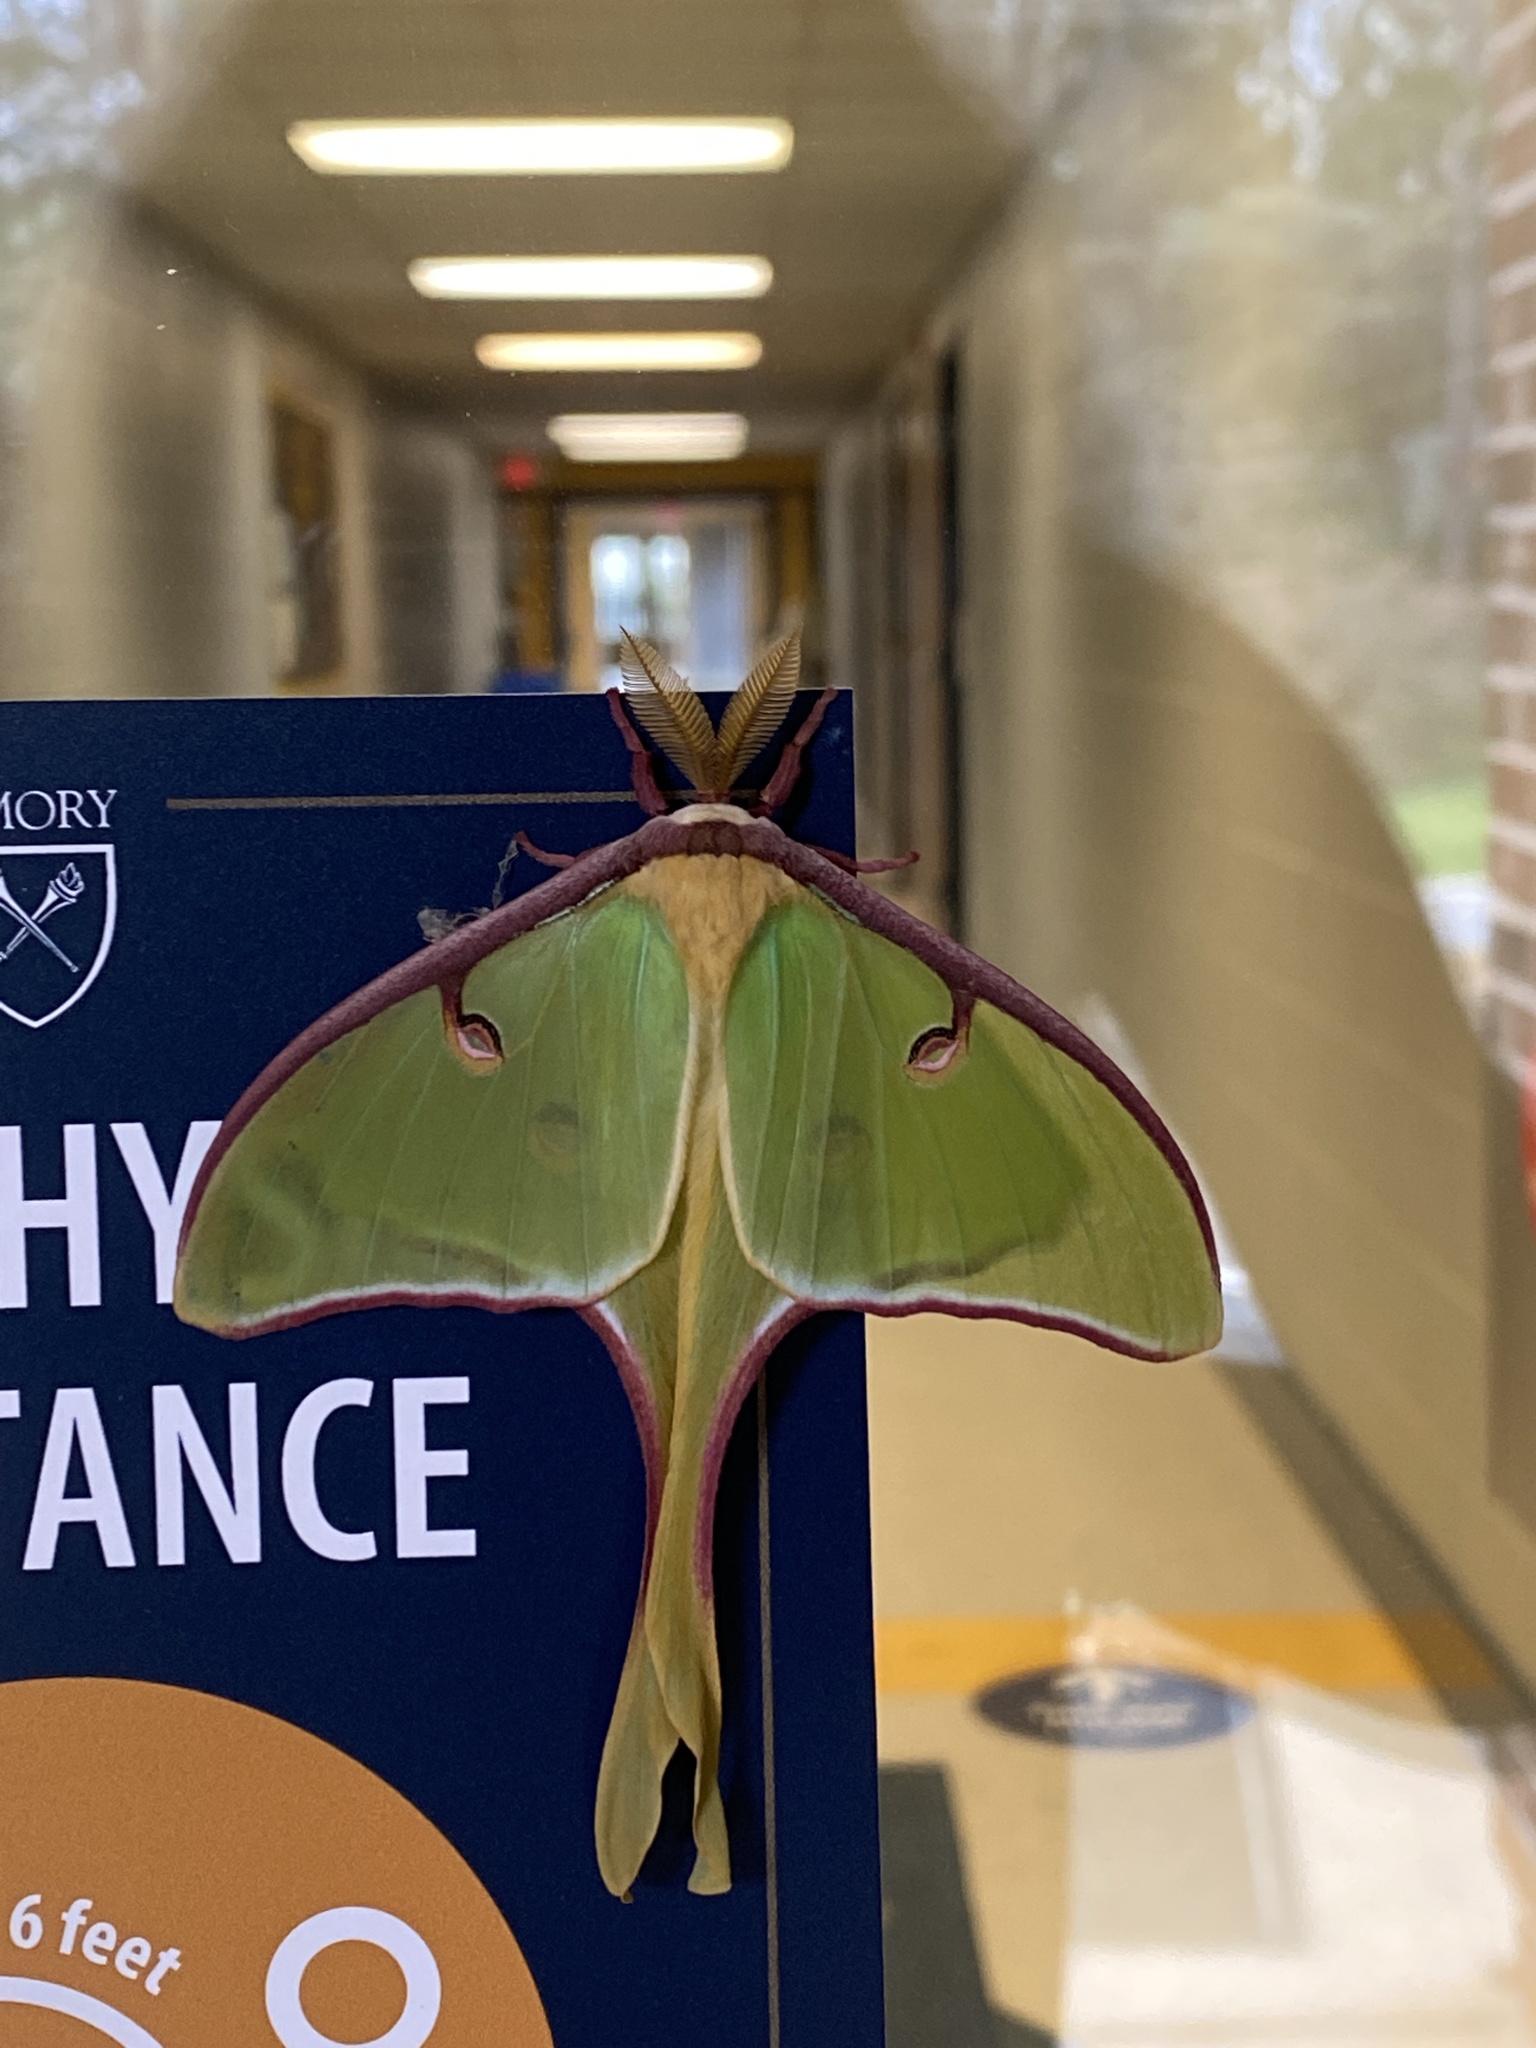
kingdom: Animalia
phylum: Arthropoda
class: Insecta
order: Lepidoptera
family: Saturniidae
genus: Actias
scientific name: Actias luna
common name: Luna moth
